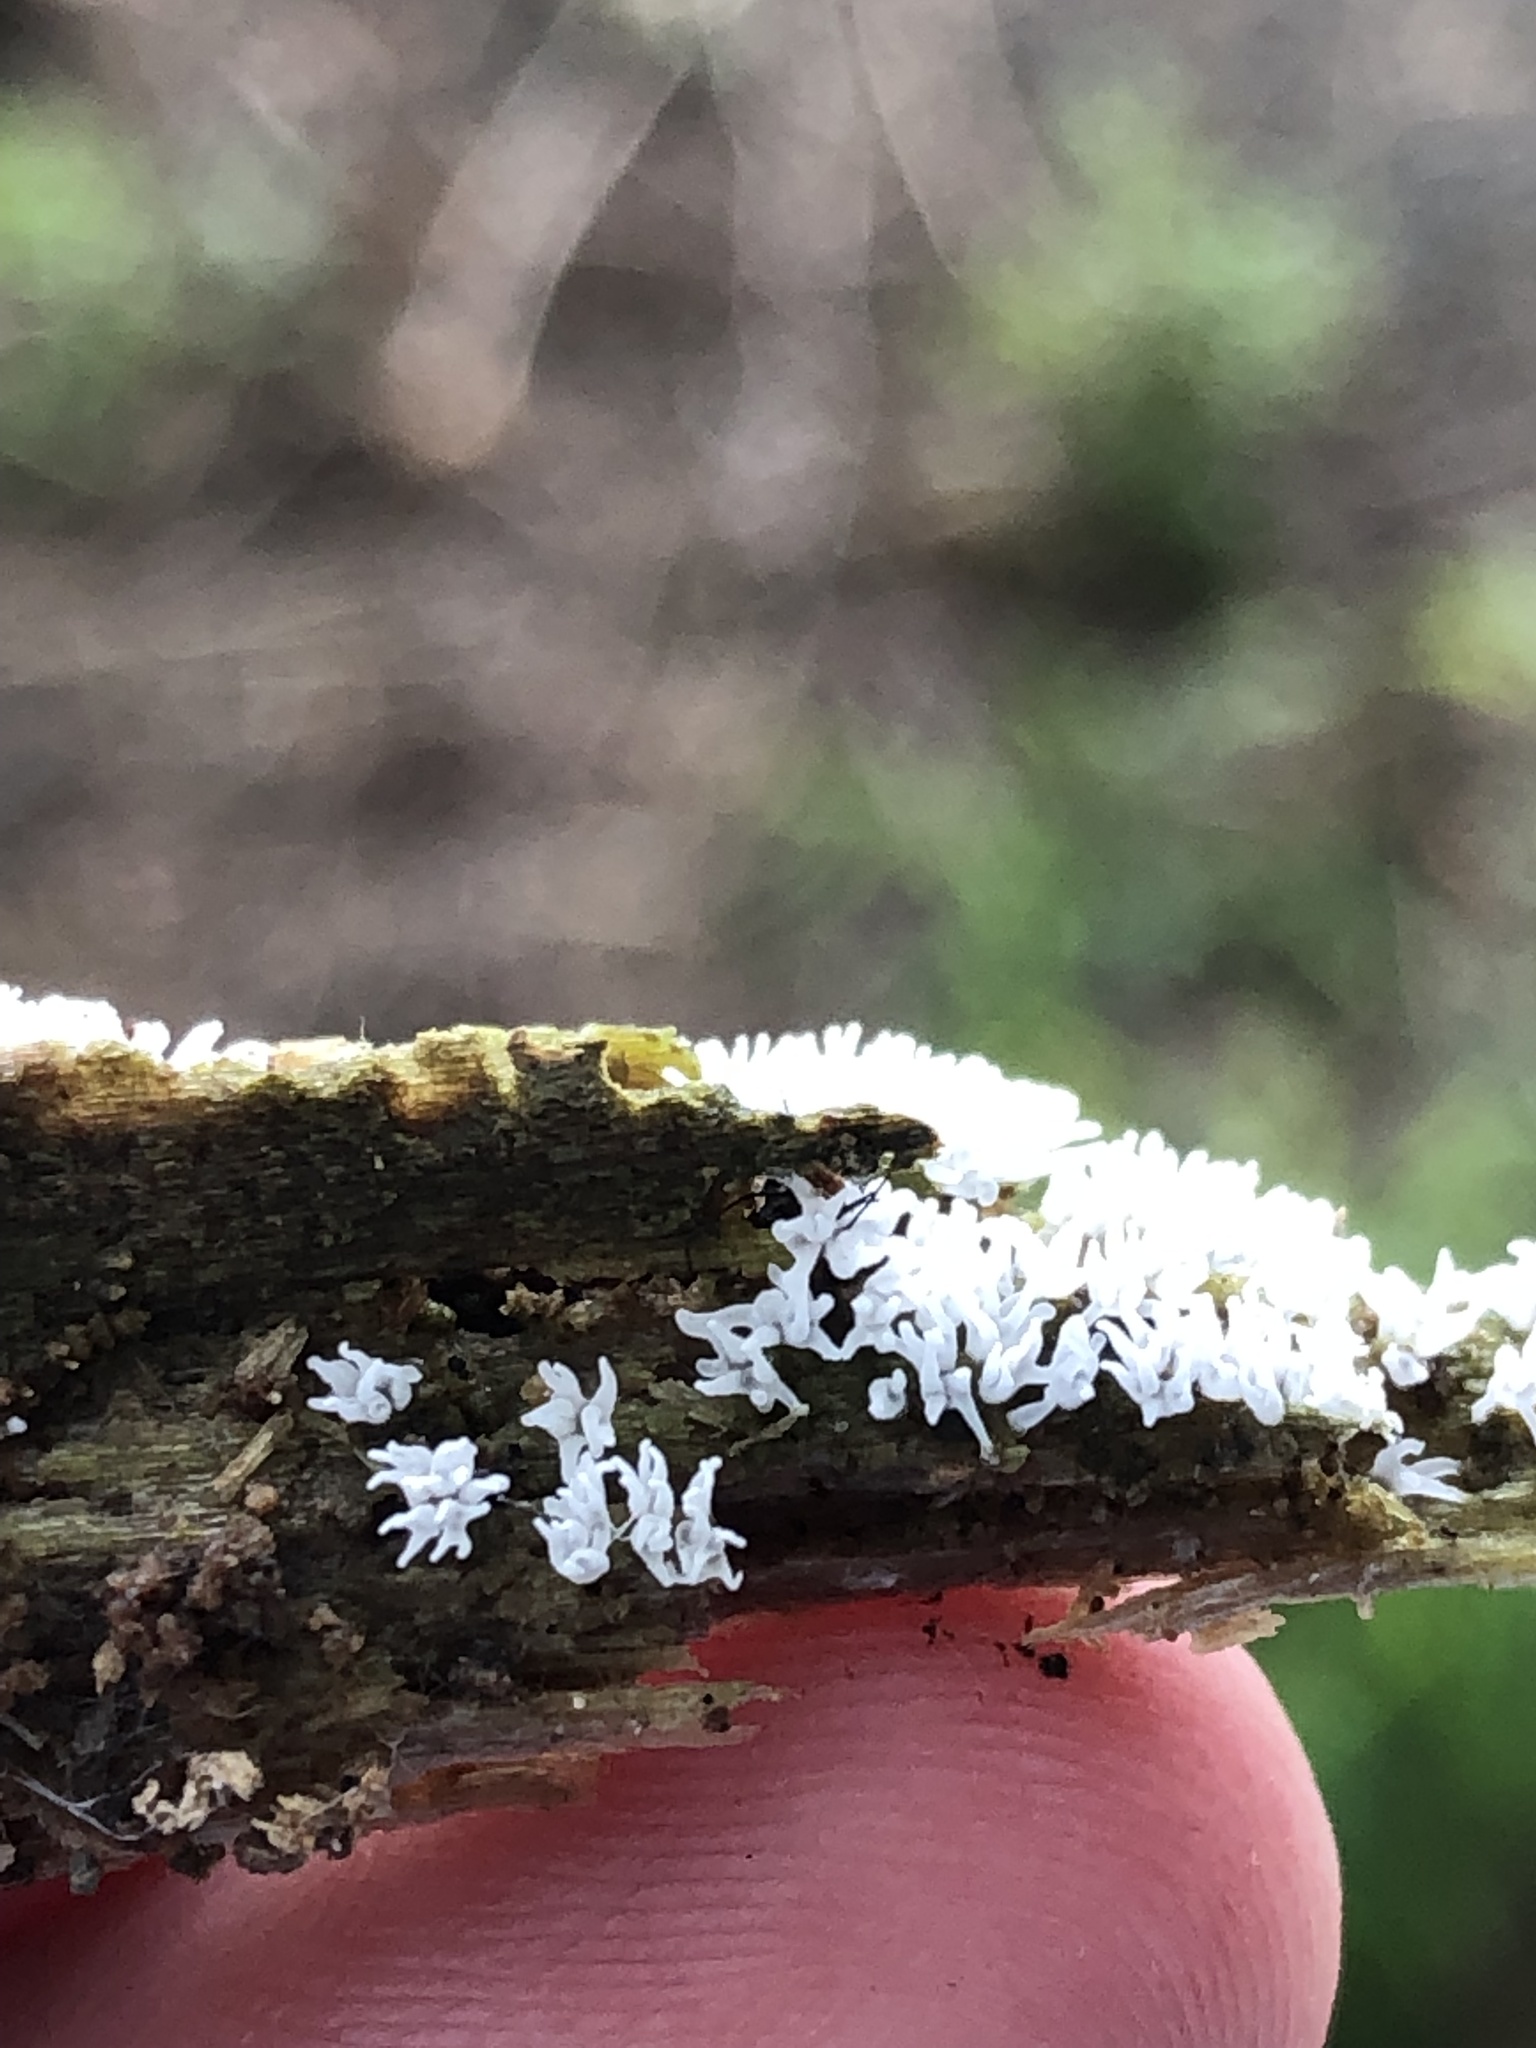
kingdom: Protozoa
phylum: Mycetozoa
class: Protosteliomycetes
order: Ceratiomyxales
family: Ceratiomyxaceae
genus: Ceratiomyxa
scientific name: Ceratiomyxa fruticulosa
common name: Honeycomb coral slime mold
